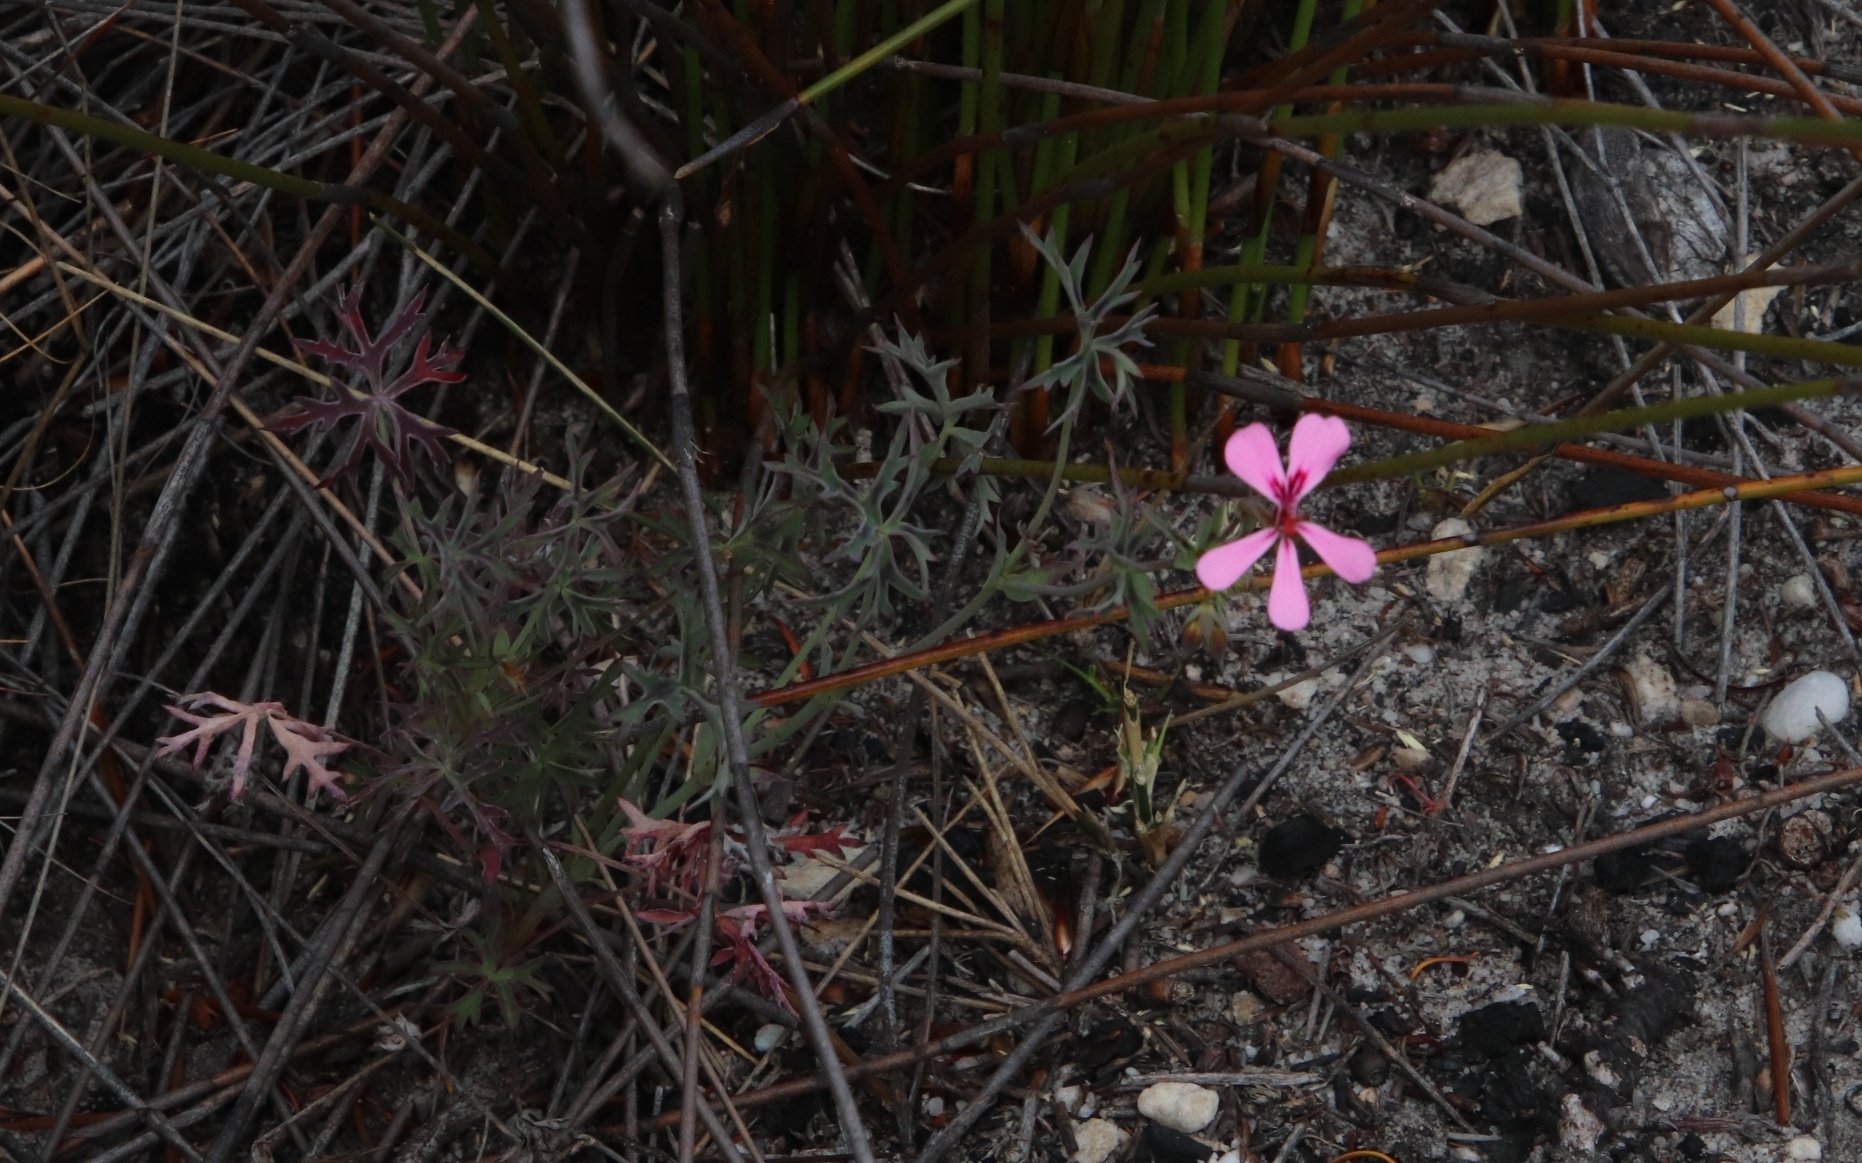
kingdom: Plantae
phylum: Tracheophyta
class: Magnoliopsida
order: Geraniales
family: Geraniaceae
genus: Pelargonium
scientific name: Pelargonium patulum
